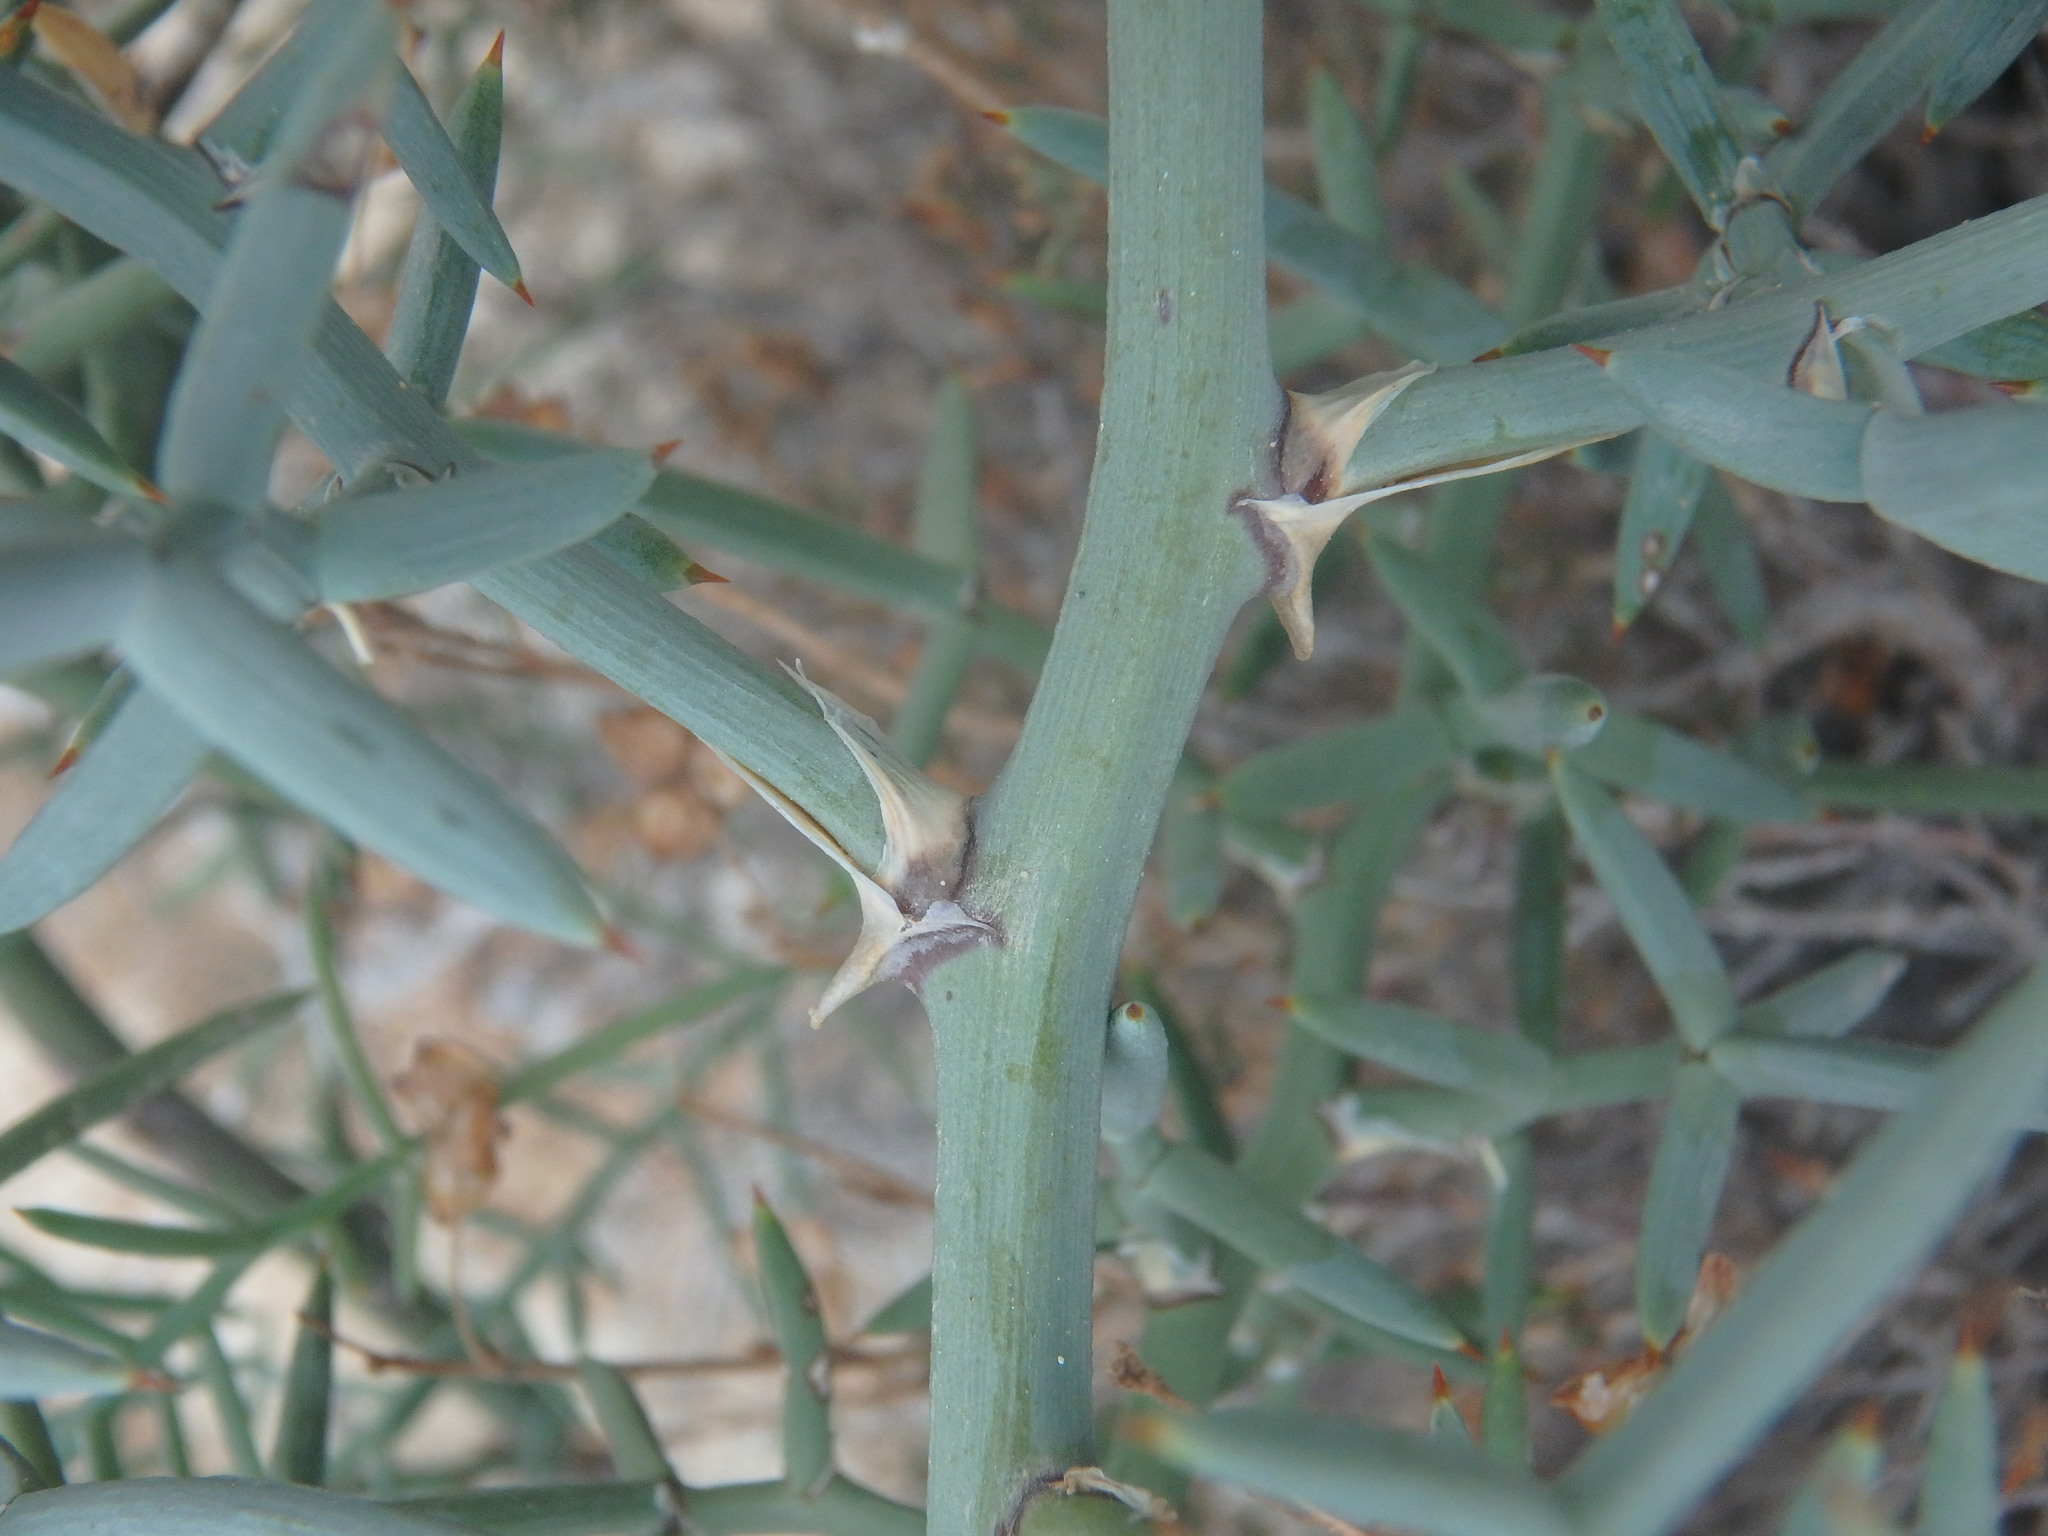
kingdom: Plantae
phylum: Tracheophyta
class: Liliopsida
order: Asparagales
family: Asparagaceae
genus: Asparagus
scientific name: Asparagus horridus
